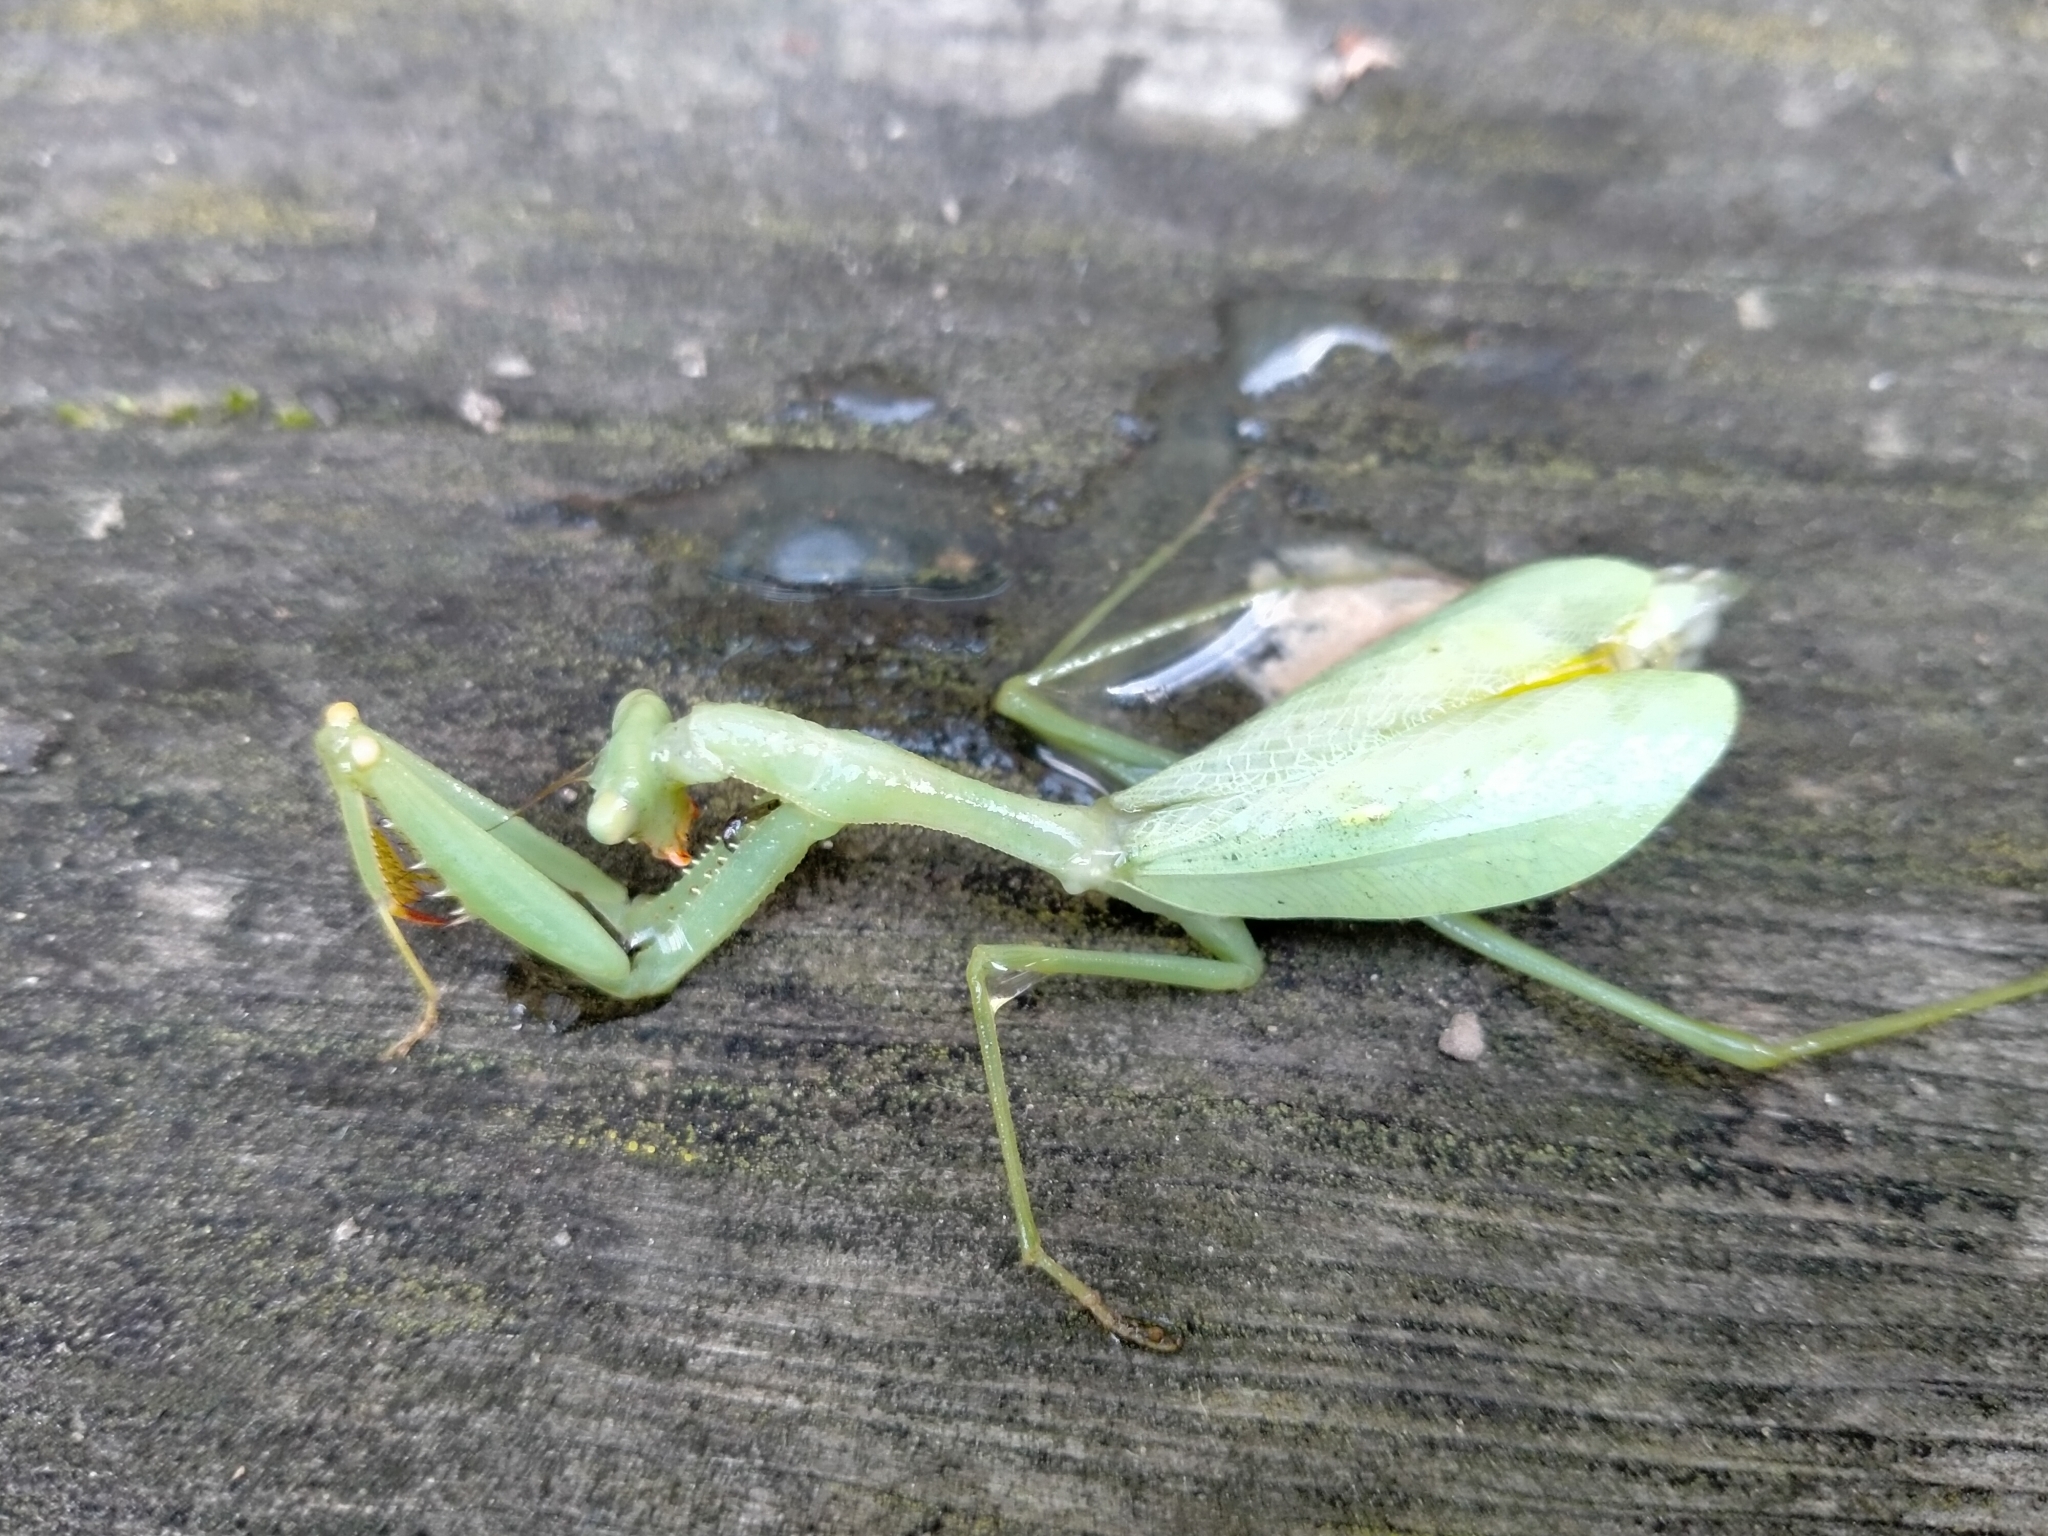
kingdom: Animalia
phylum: Arthropoda
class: Insecta
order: Mantodea
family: Miomantidae
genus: Miomantis
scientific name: Miomantis caffra
